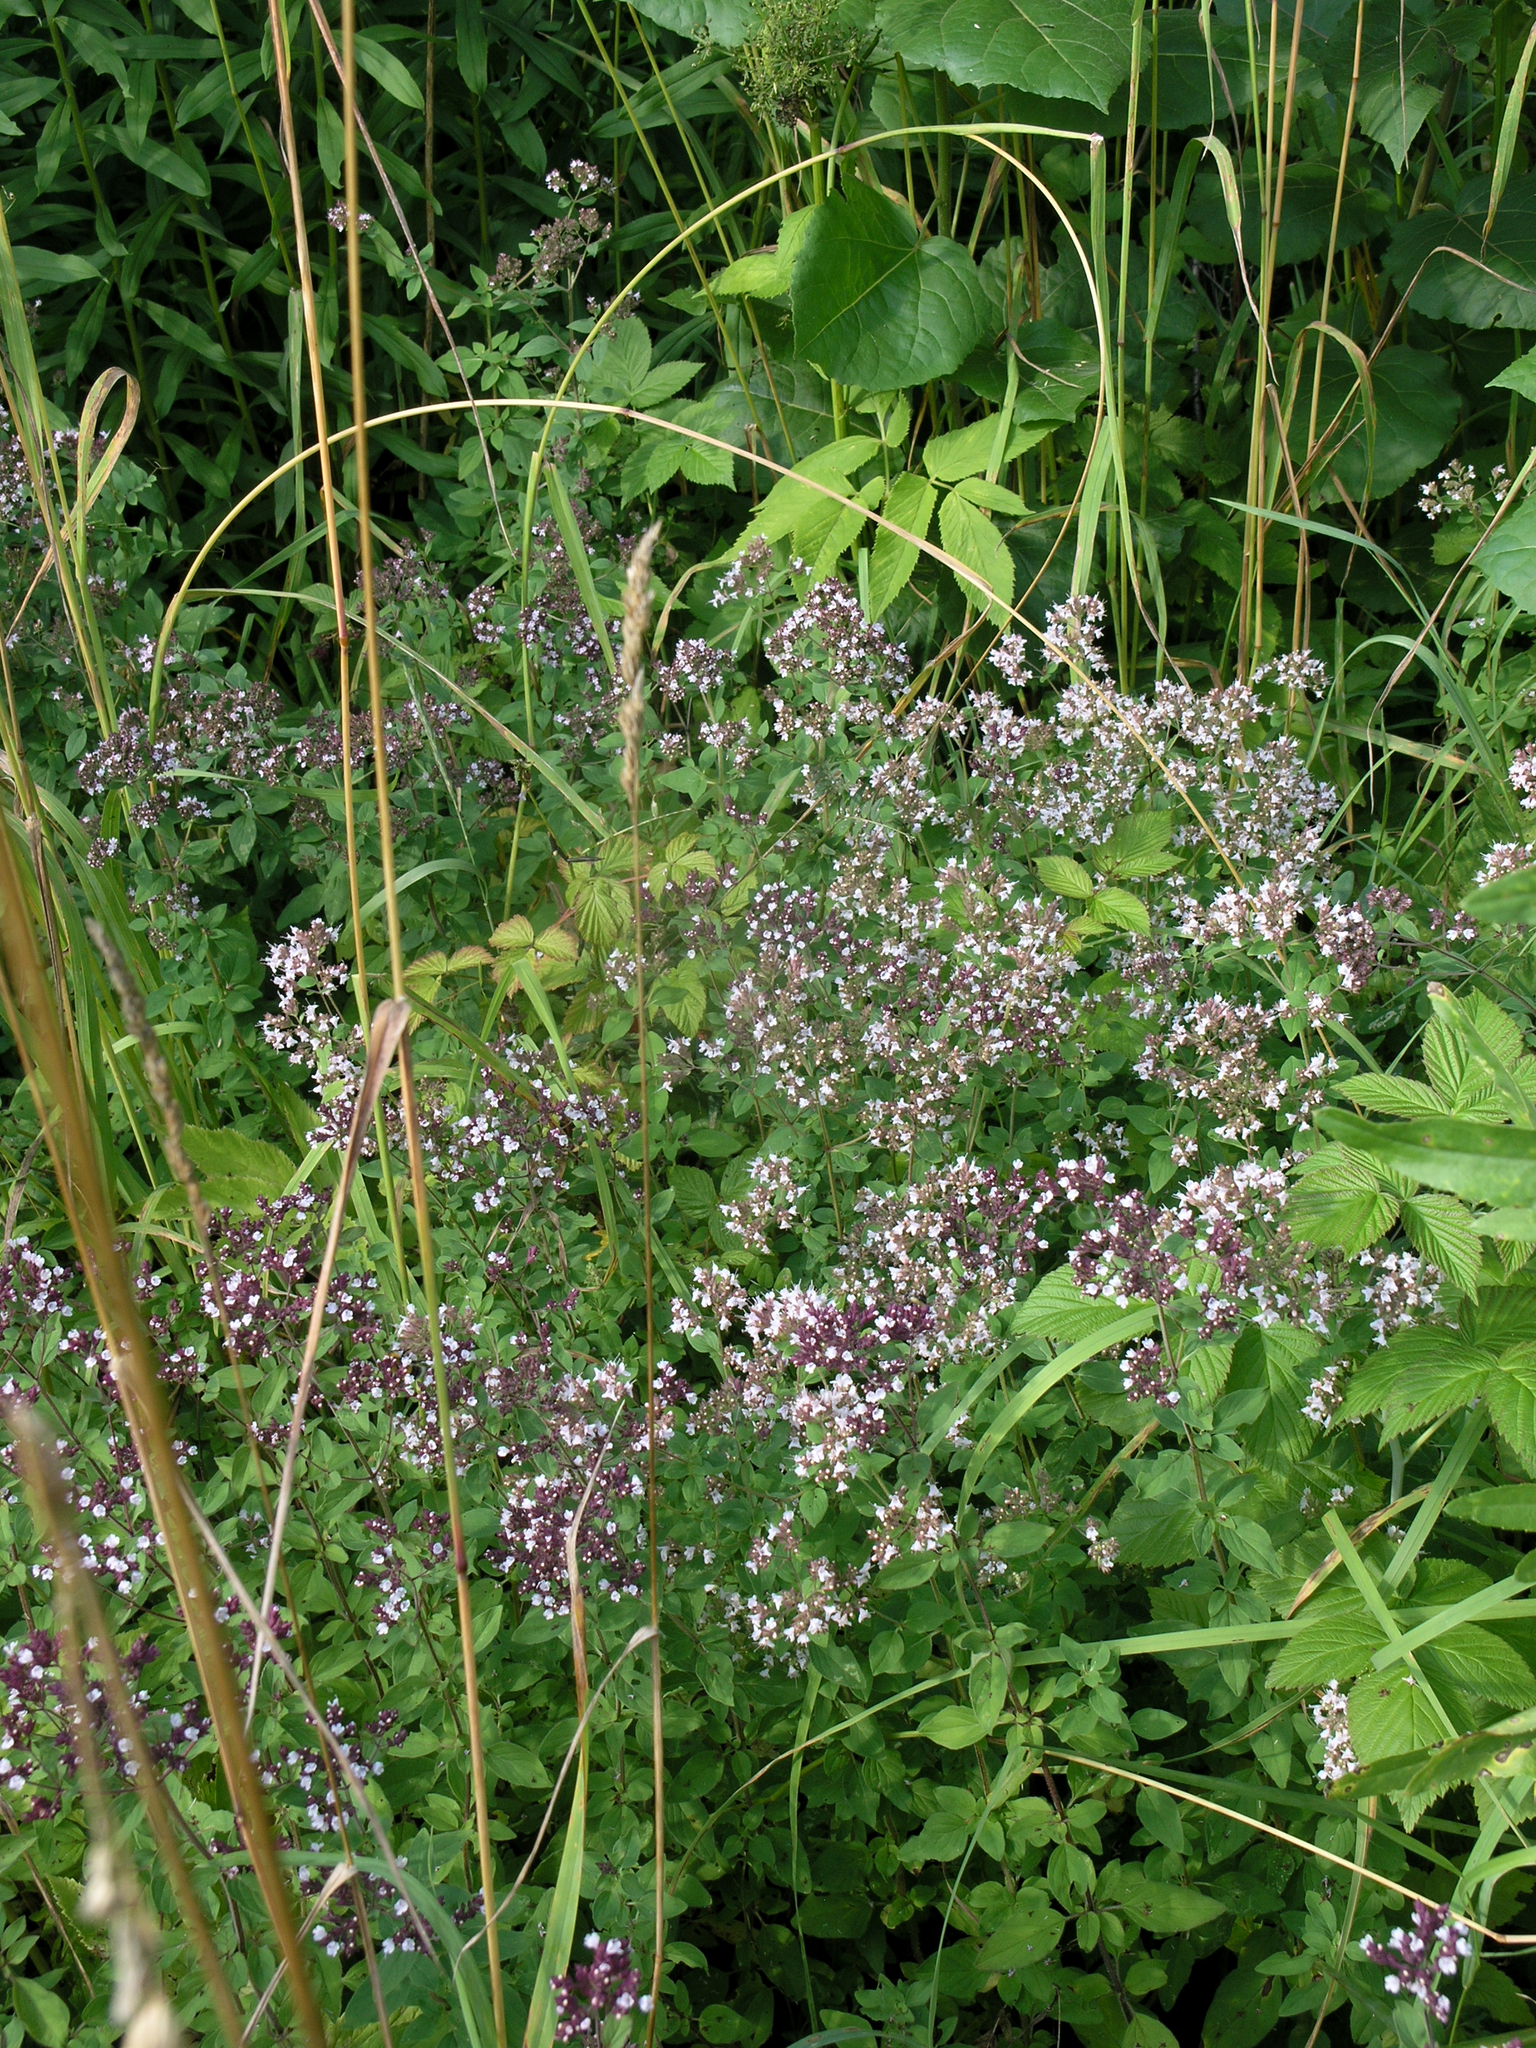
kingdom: Plantae
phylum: Tracheophyta
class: Magnoliopsida
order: Lamiales
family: Lamiaceae
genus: Origanum
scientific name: Origanum vulgare
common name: Wild marjoram
